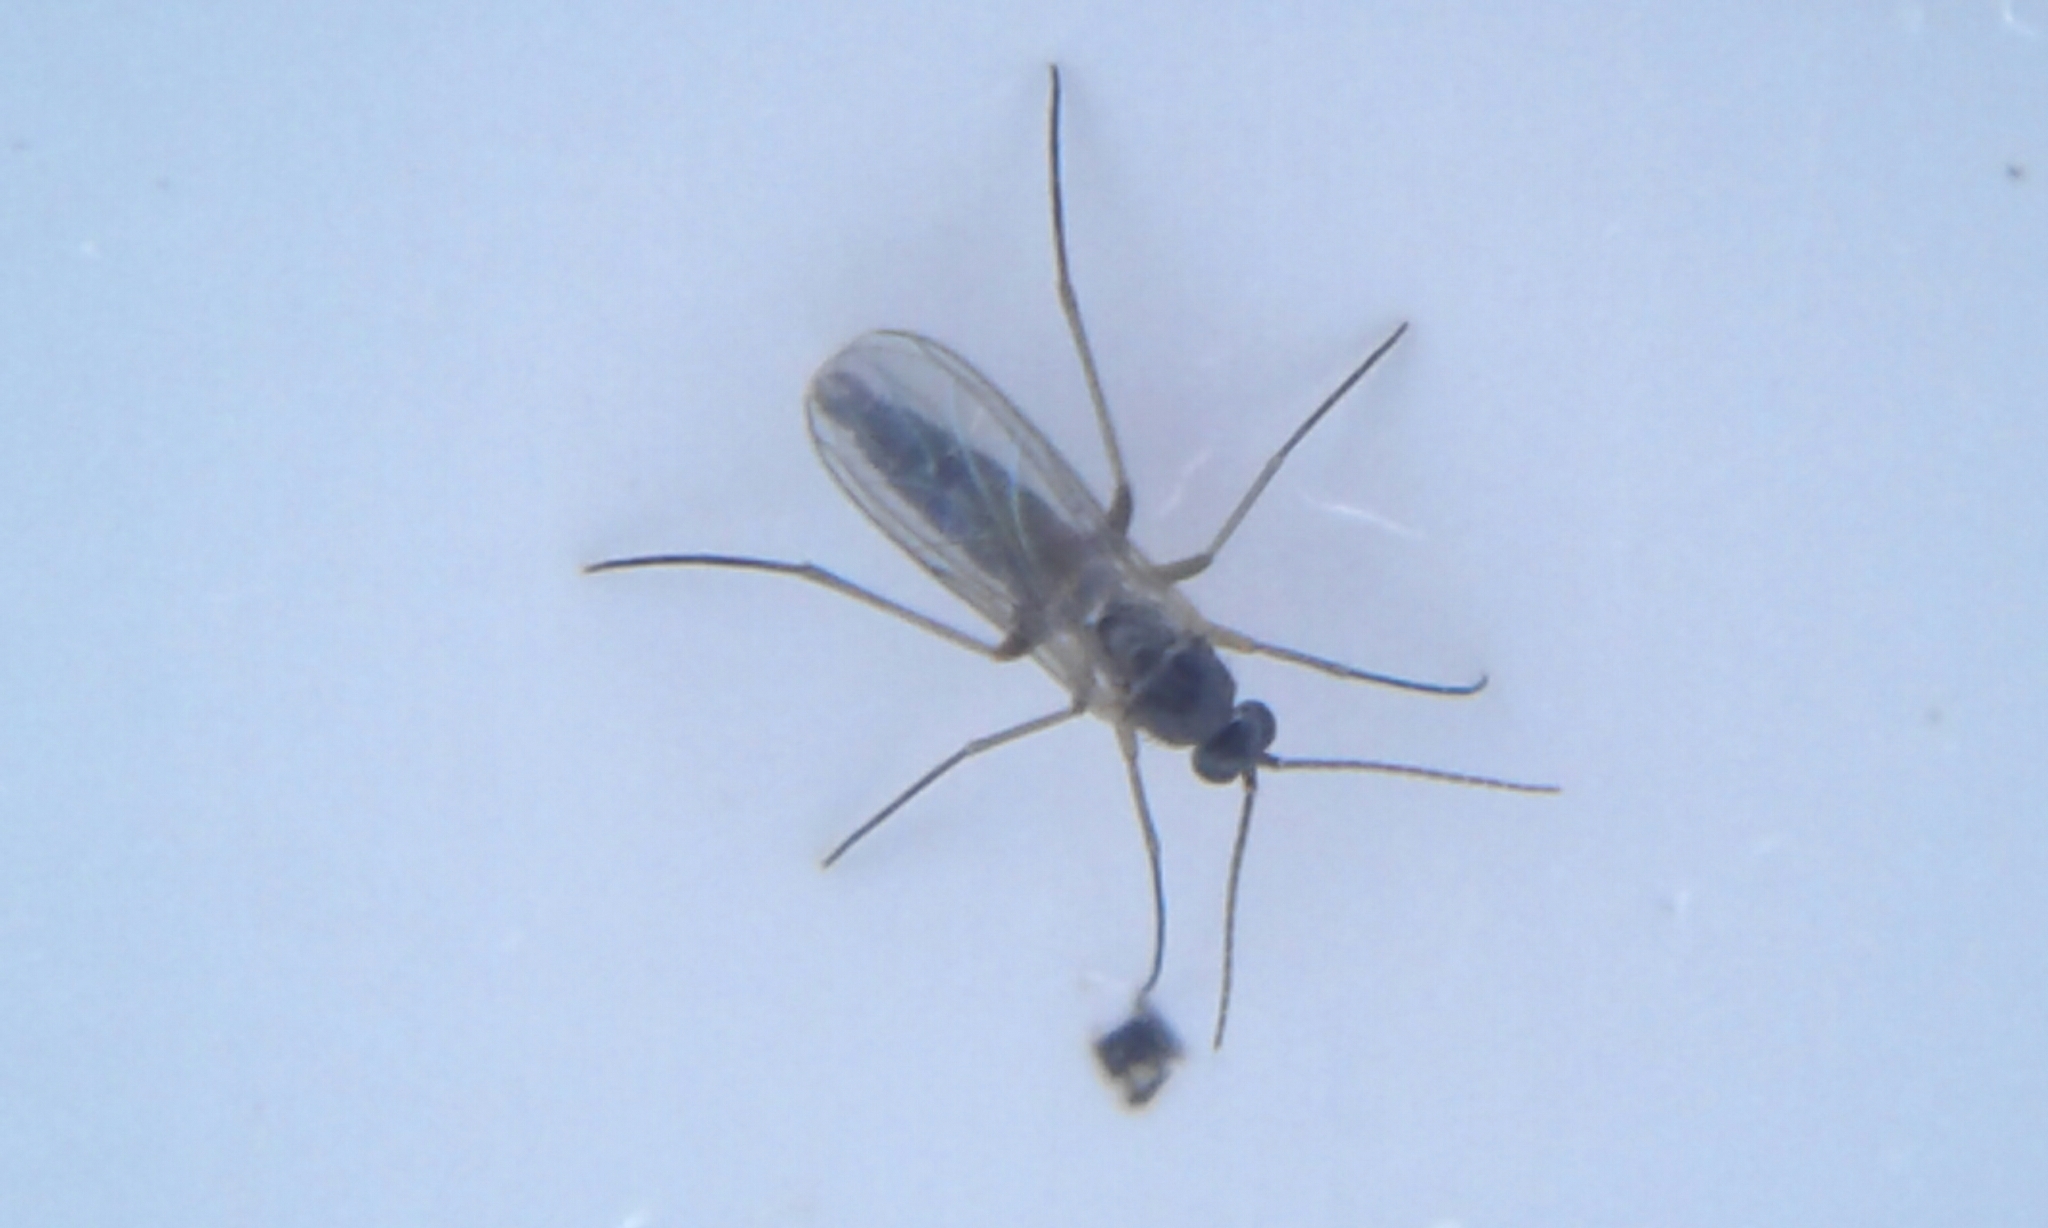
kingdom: Animalia
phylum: Arthropoda
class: Insecta
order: Diptera
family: Sciaridae
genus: Bradysia
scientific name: Bradysia
